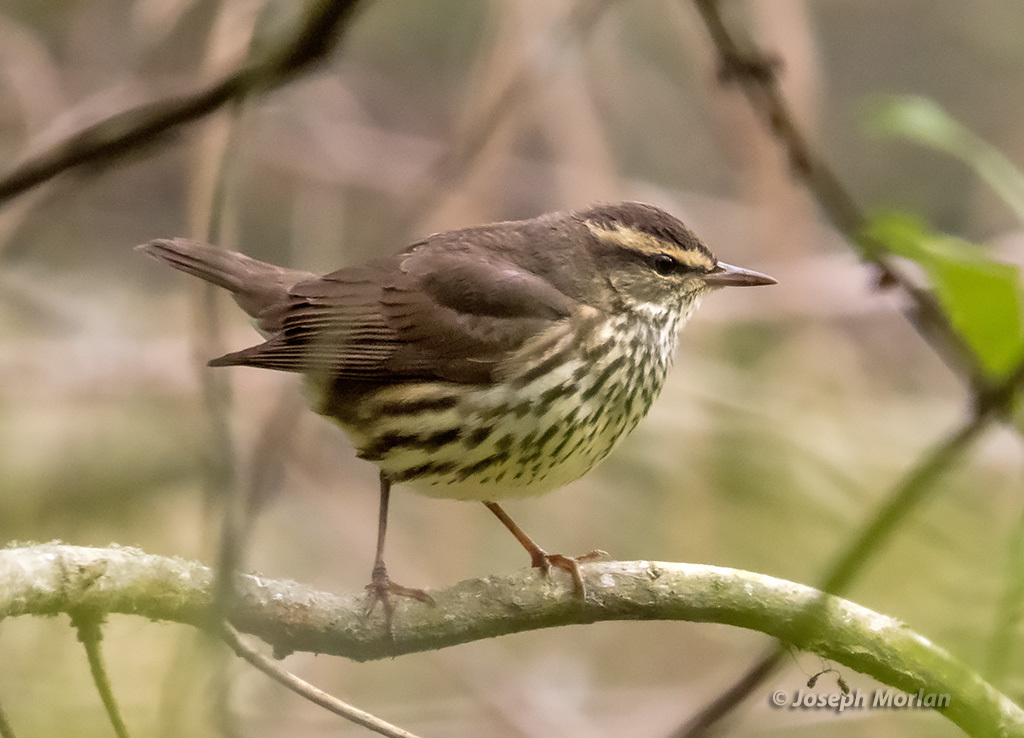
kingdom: Animalia
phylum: Chordata
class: Aves
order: Passeriformes
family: Parulidae
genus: Parkesia
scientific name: Parkesia noveboracensis
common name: Northern waterthrush
